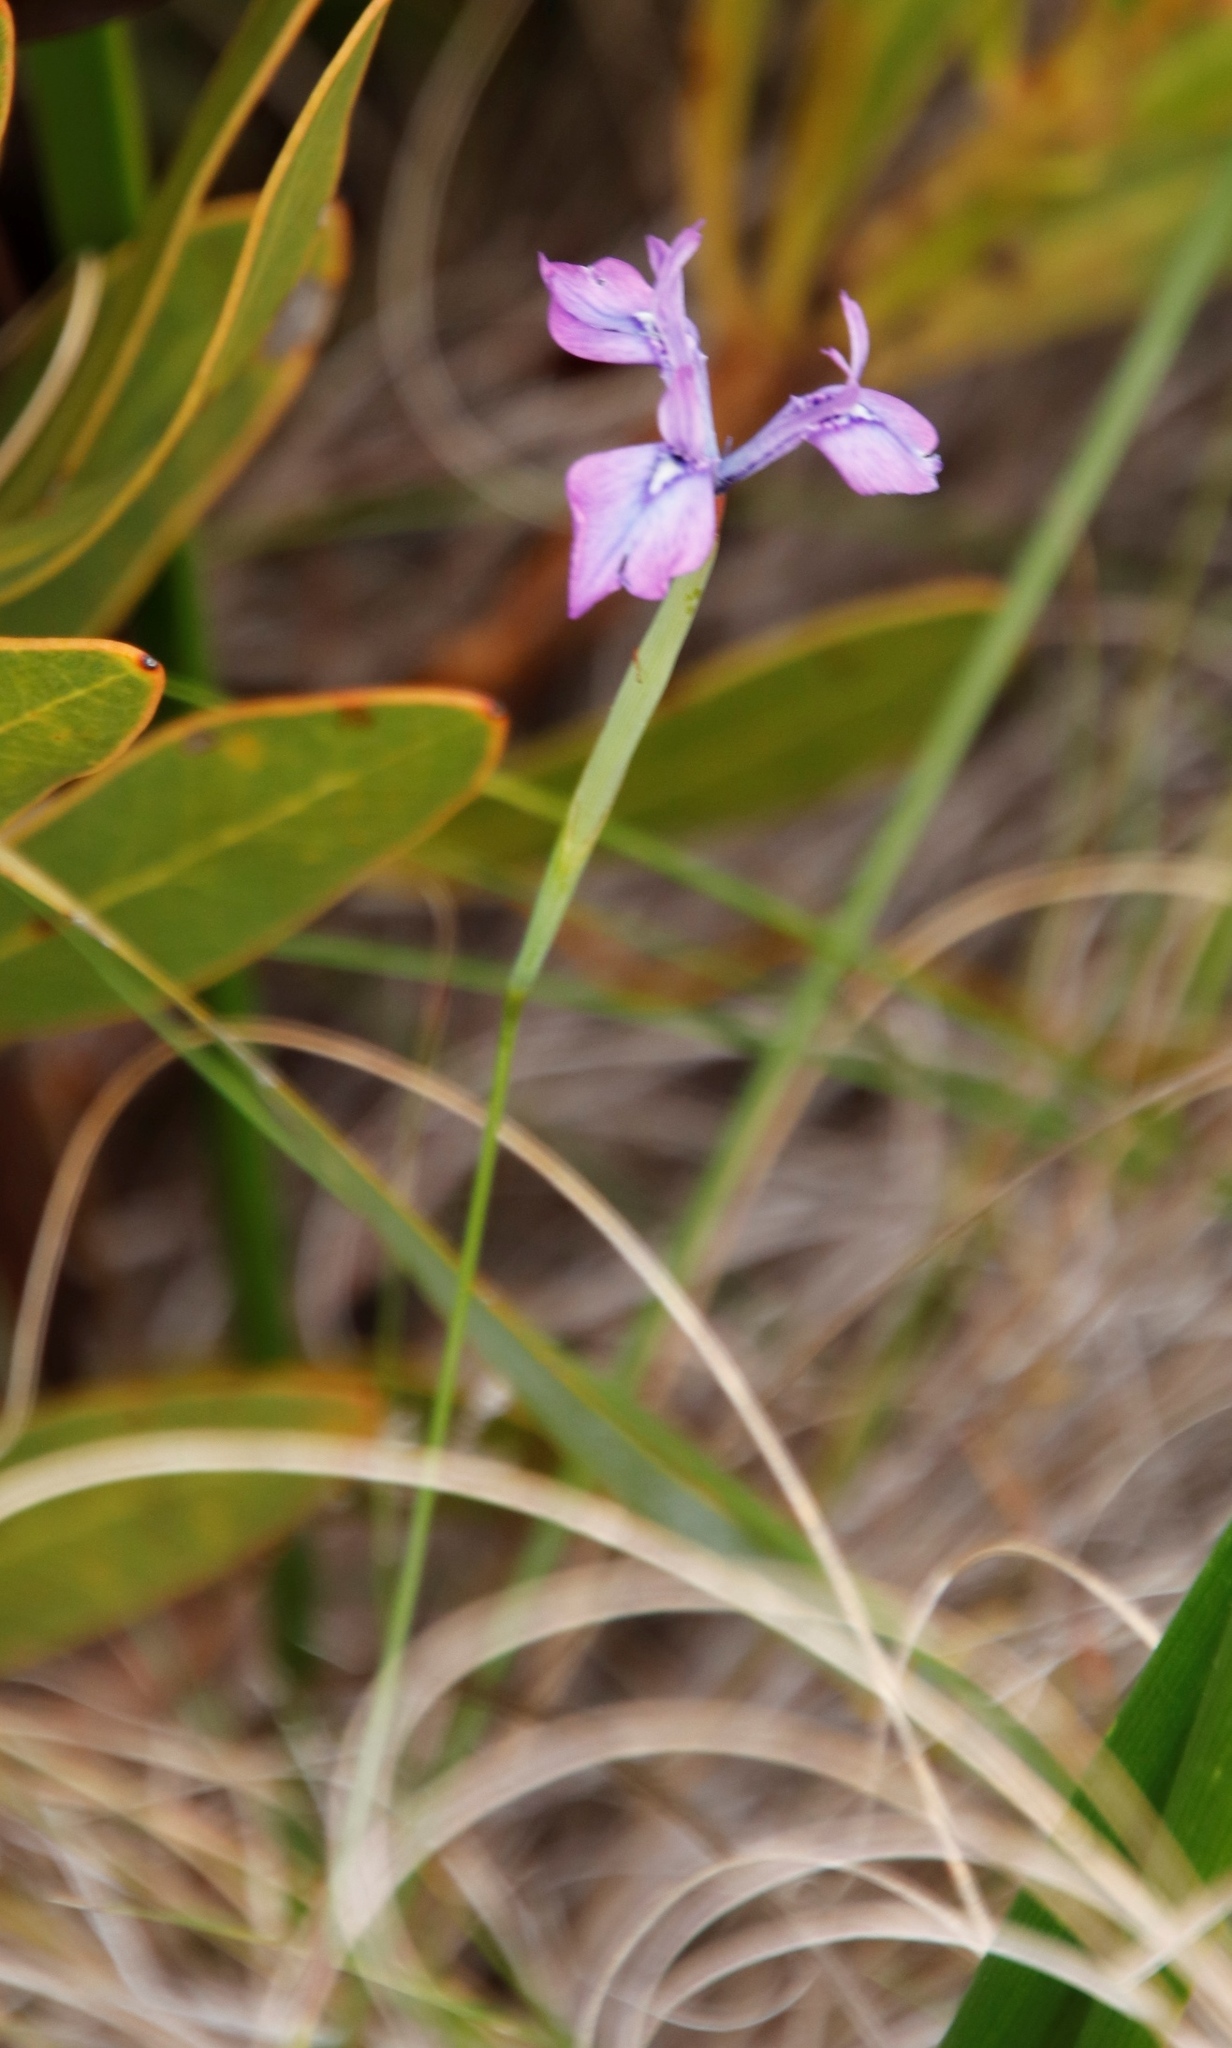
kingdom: Plantae
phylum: Tracheophyta
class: Liliopsida
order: Asparagales
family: Iridaceae
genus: Moraea
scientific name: Moraea tripetala
